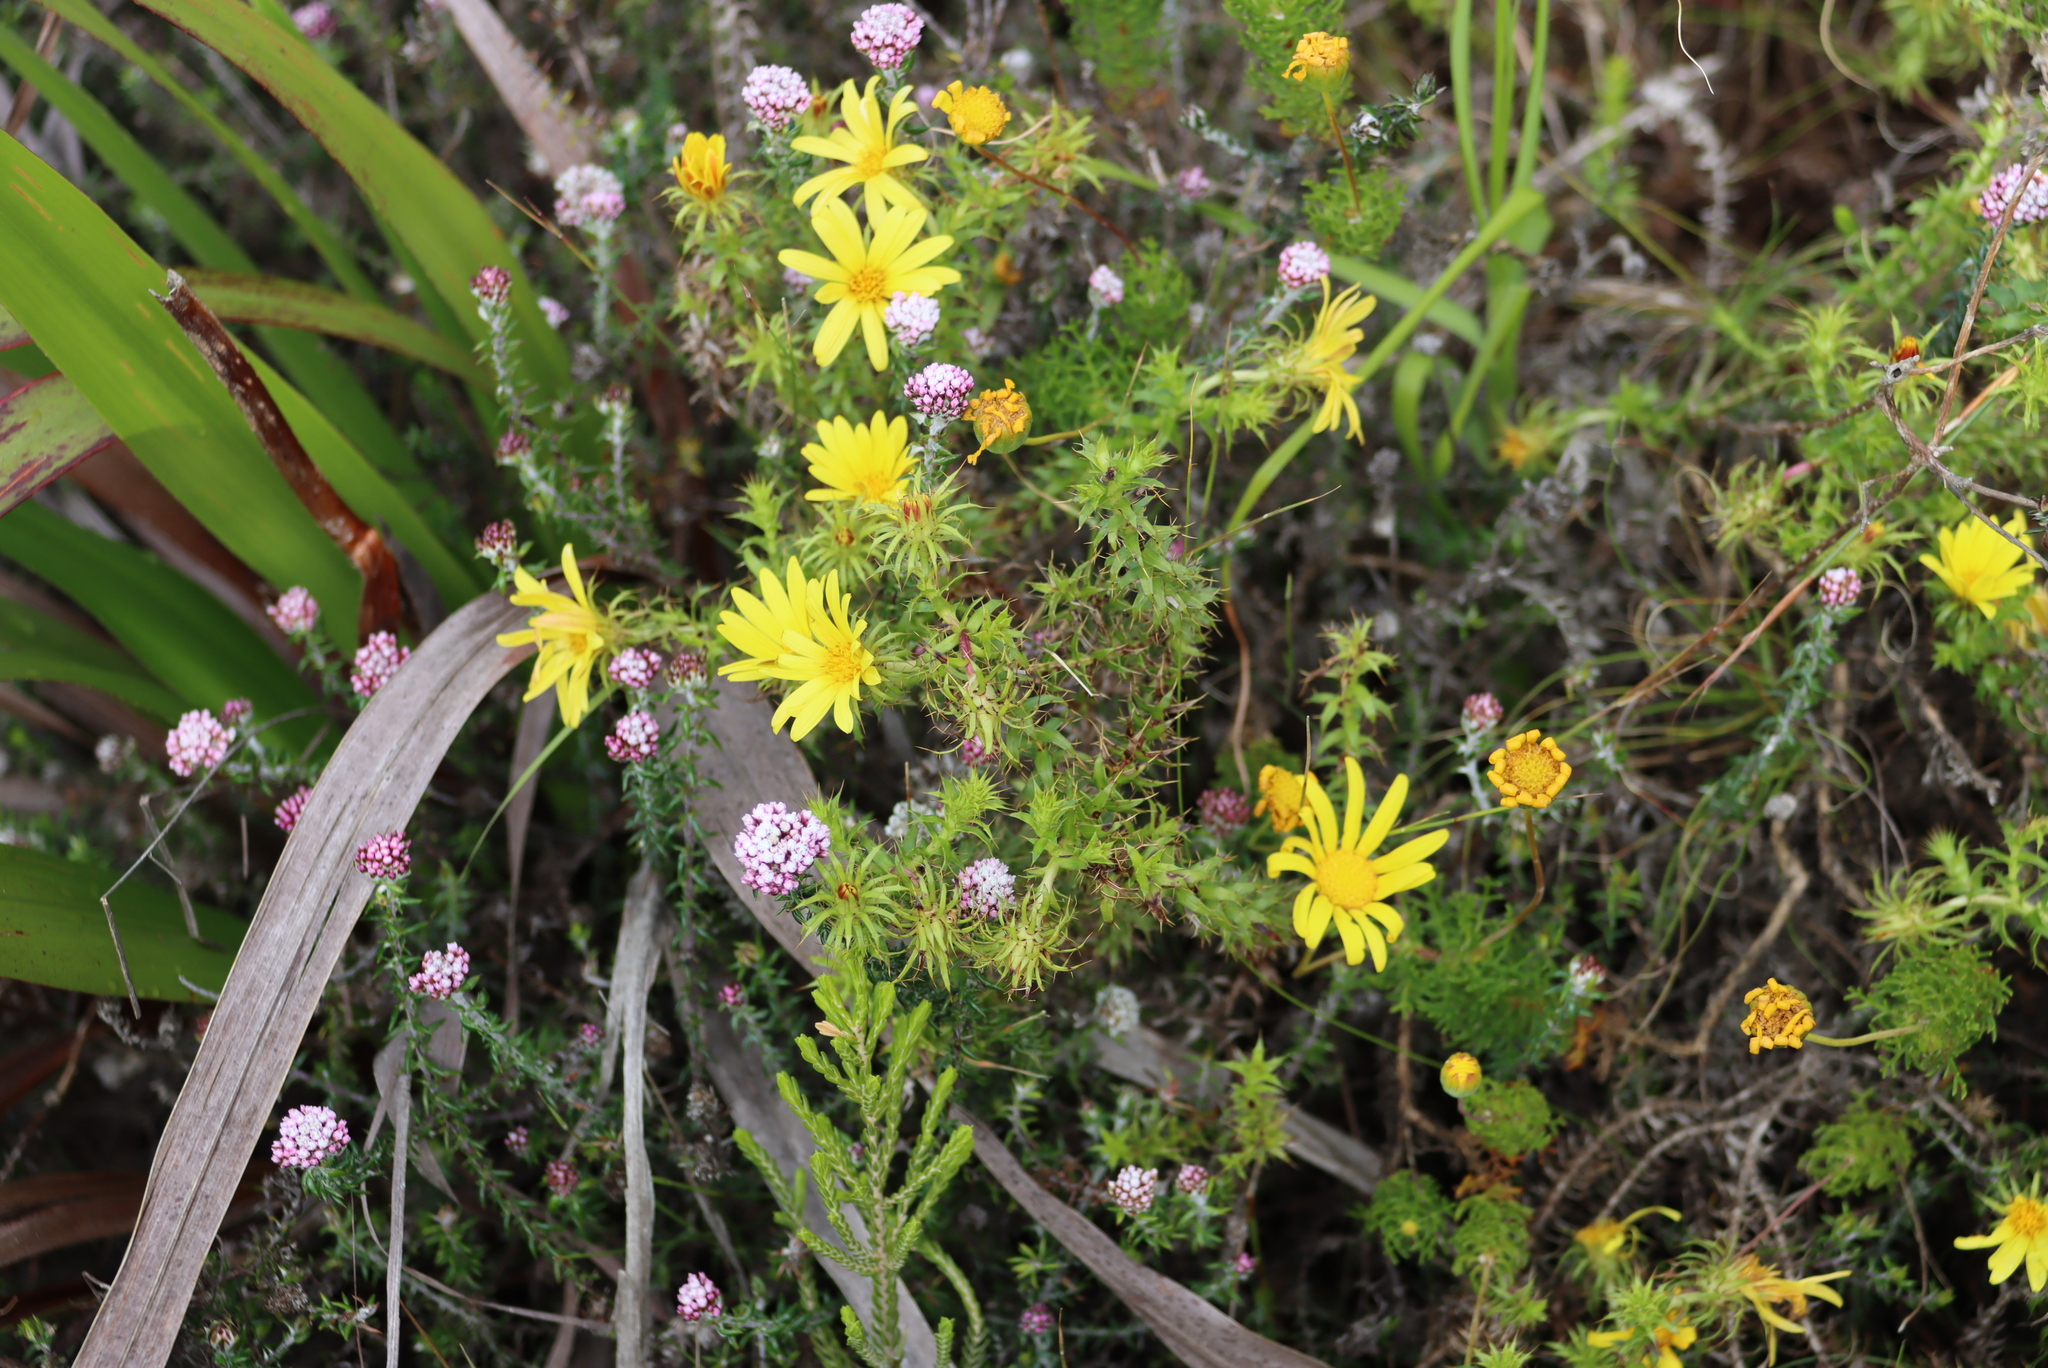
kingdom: Plantae
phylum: Tracheophyta
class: Magnoliopsida
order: Asterales
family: Asteraceae
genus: Cullumia
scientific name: Cullumia setosa
